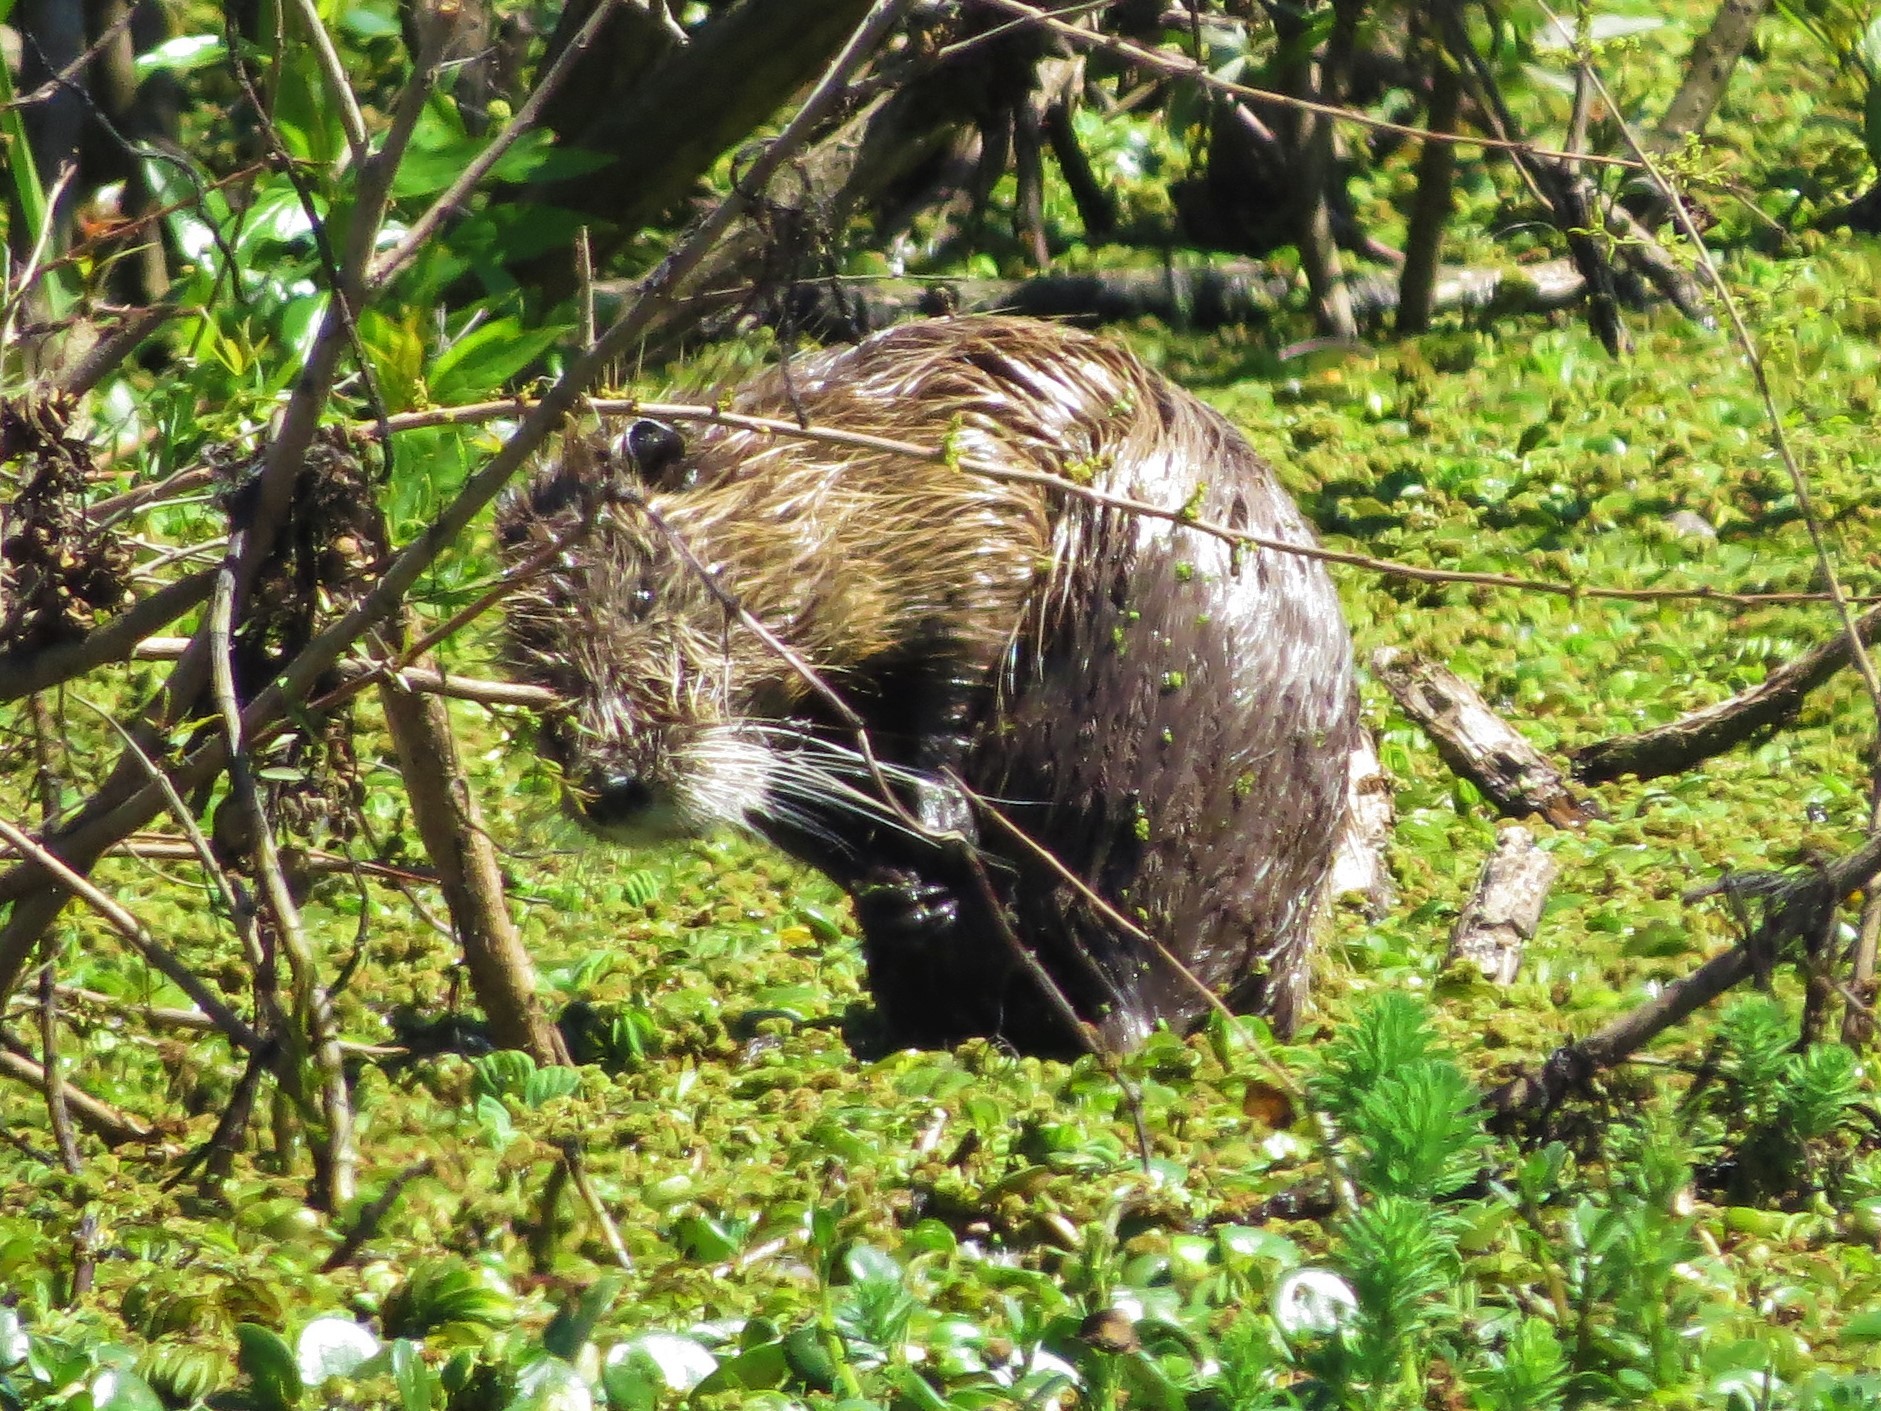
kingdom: Animalia
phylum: Chordata
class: Mammalia
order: Rodentia
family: Myocastoridae
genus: Myocastor
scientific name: Myocastor coypus
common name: Coypu
